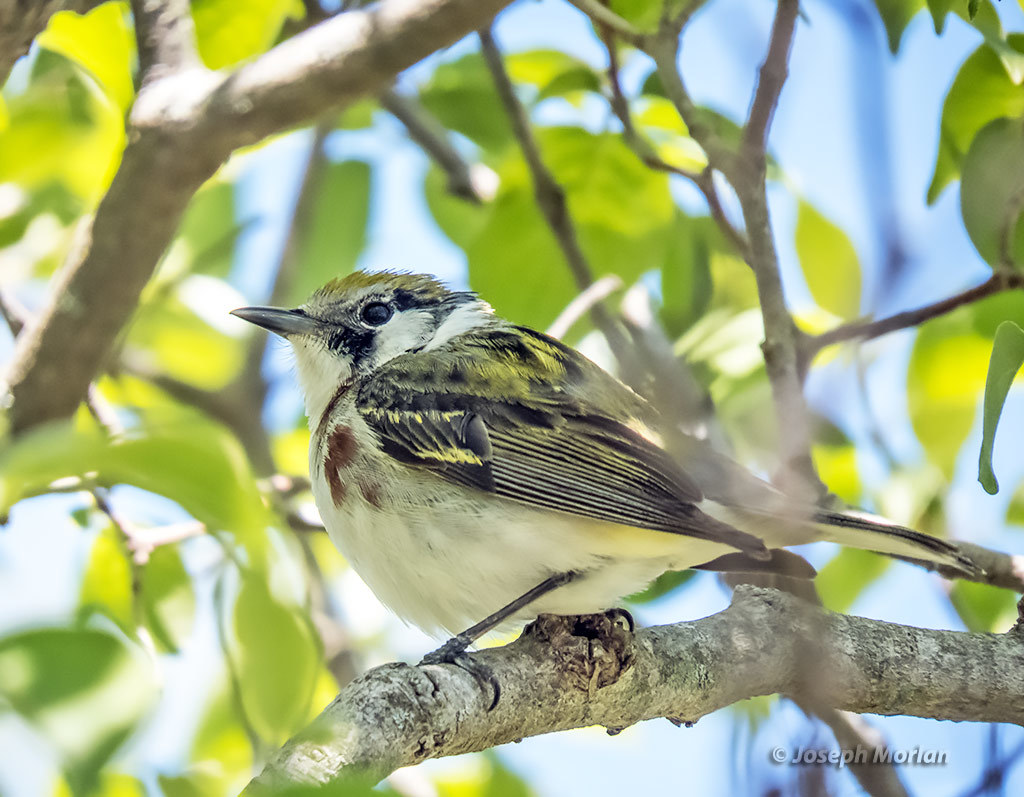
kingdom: Animalia
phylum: Chordata
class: Aves
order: Passeriformes
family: Parulidae
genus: Setophaga
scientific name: Setophaga pensylvanica
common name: Chestnut-sided warbler
